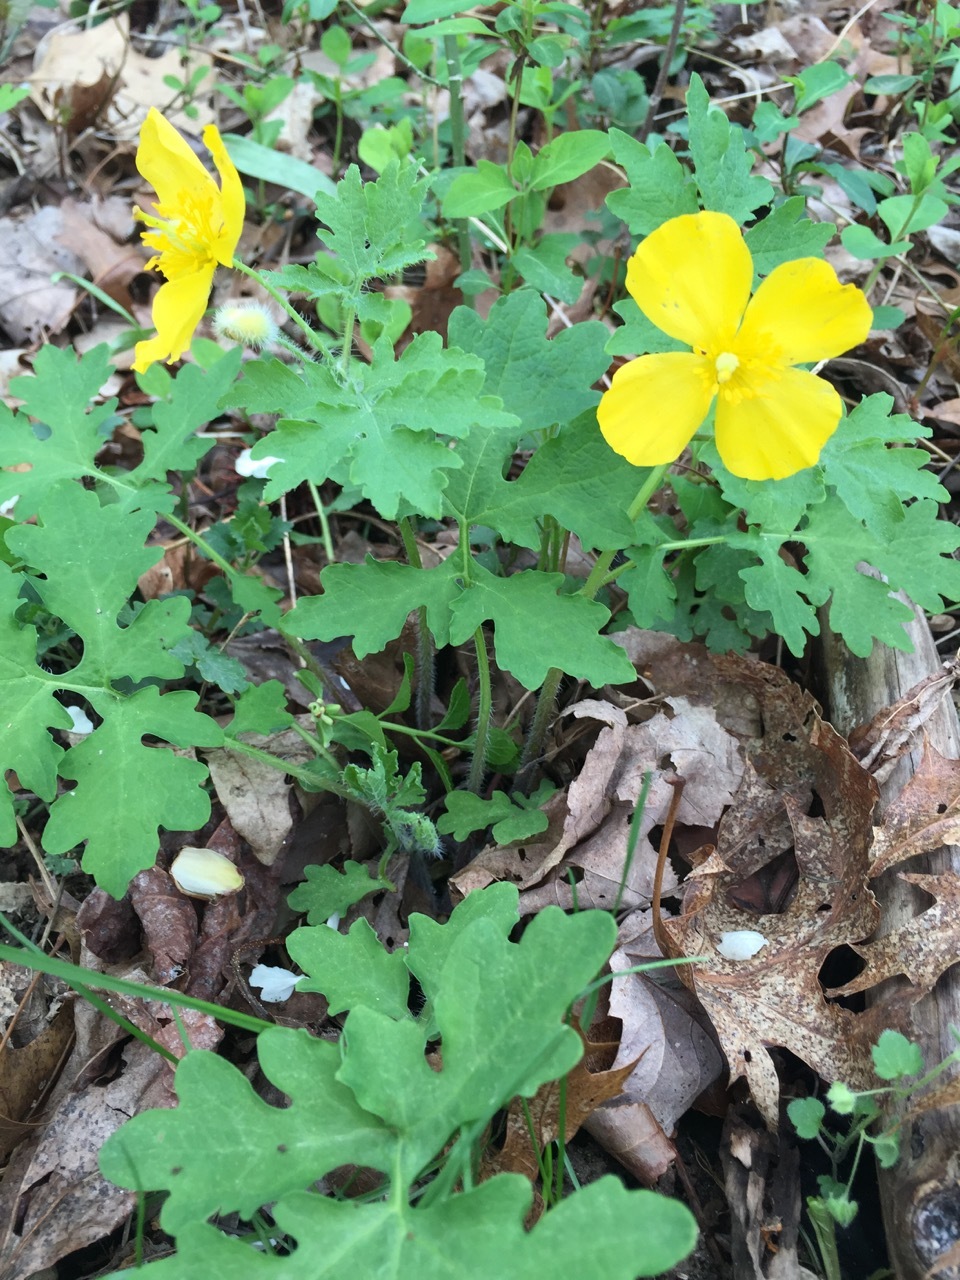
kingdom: Plantae
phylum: Tracheophyta
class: Magnoliopsida
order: Ranunculales
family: Papaveraceae
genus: Stylophorum
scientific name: Stylophorum diphyllum
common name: Celandine poppy
